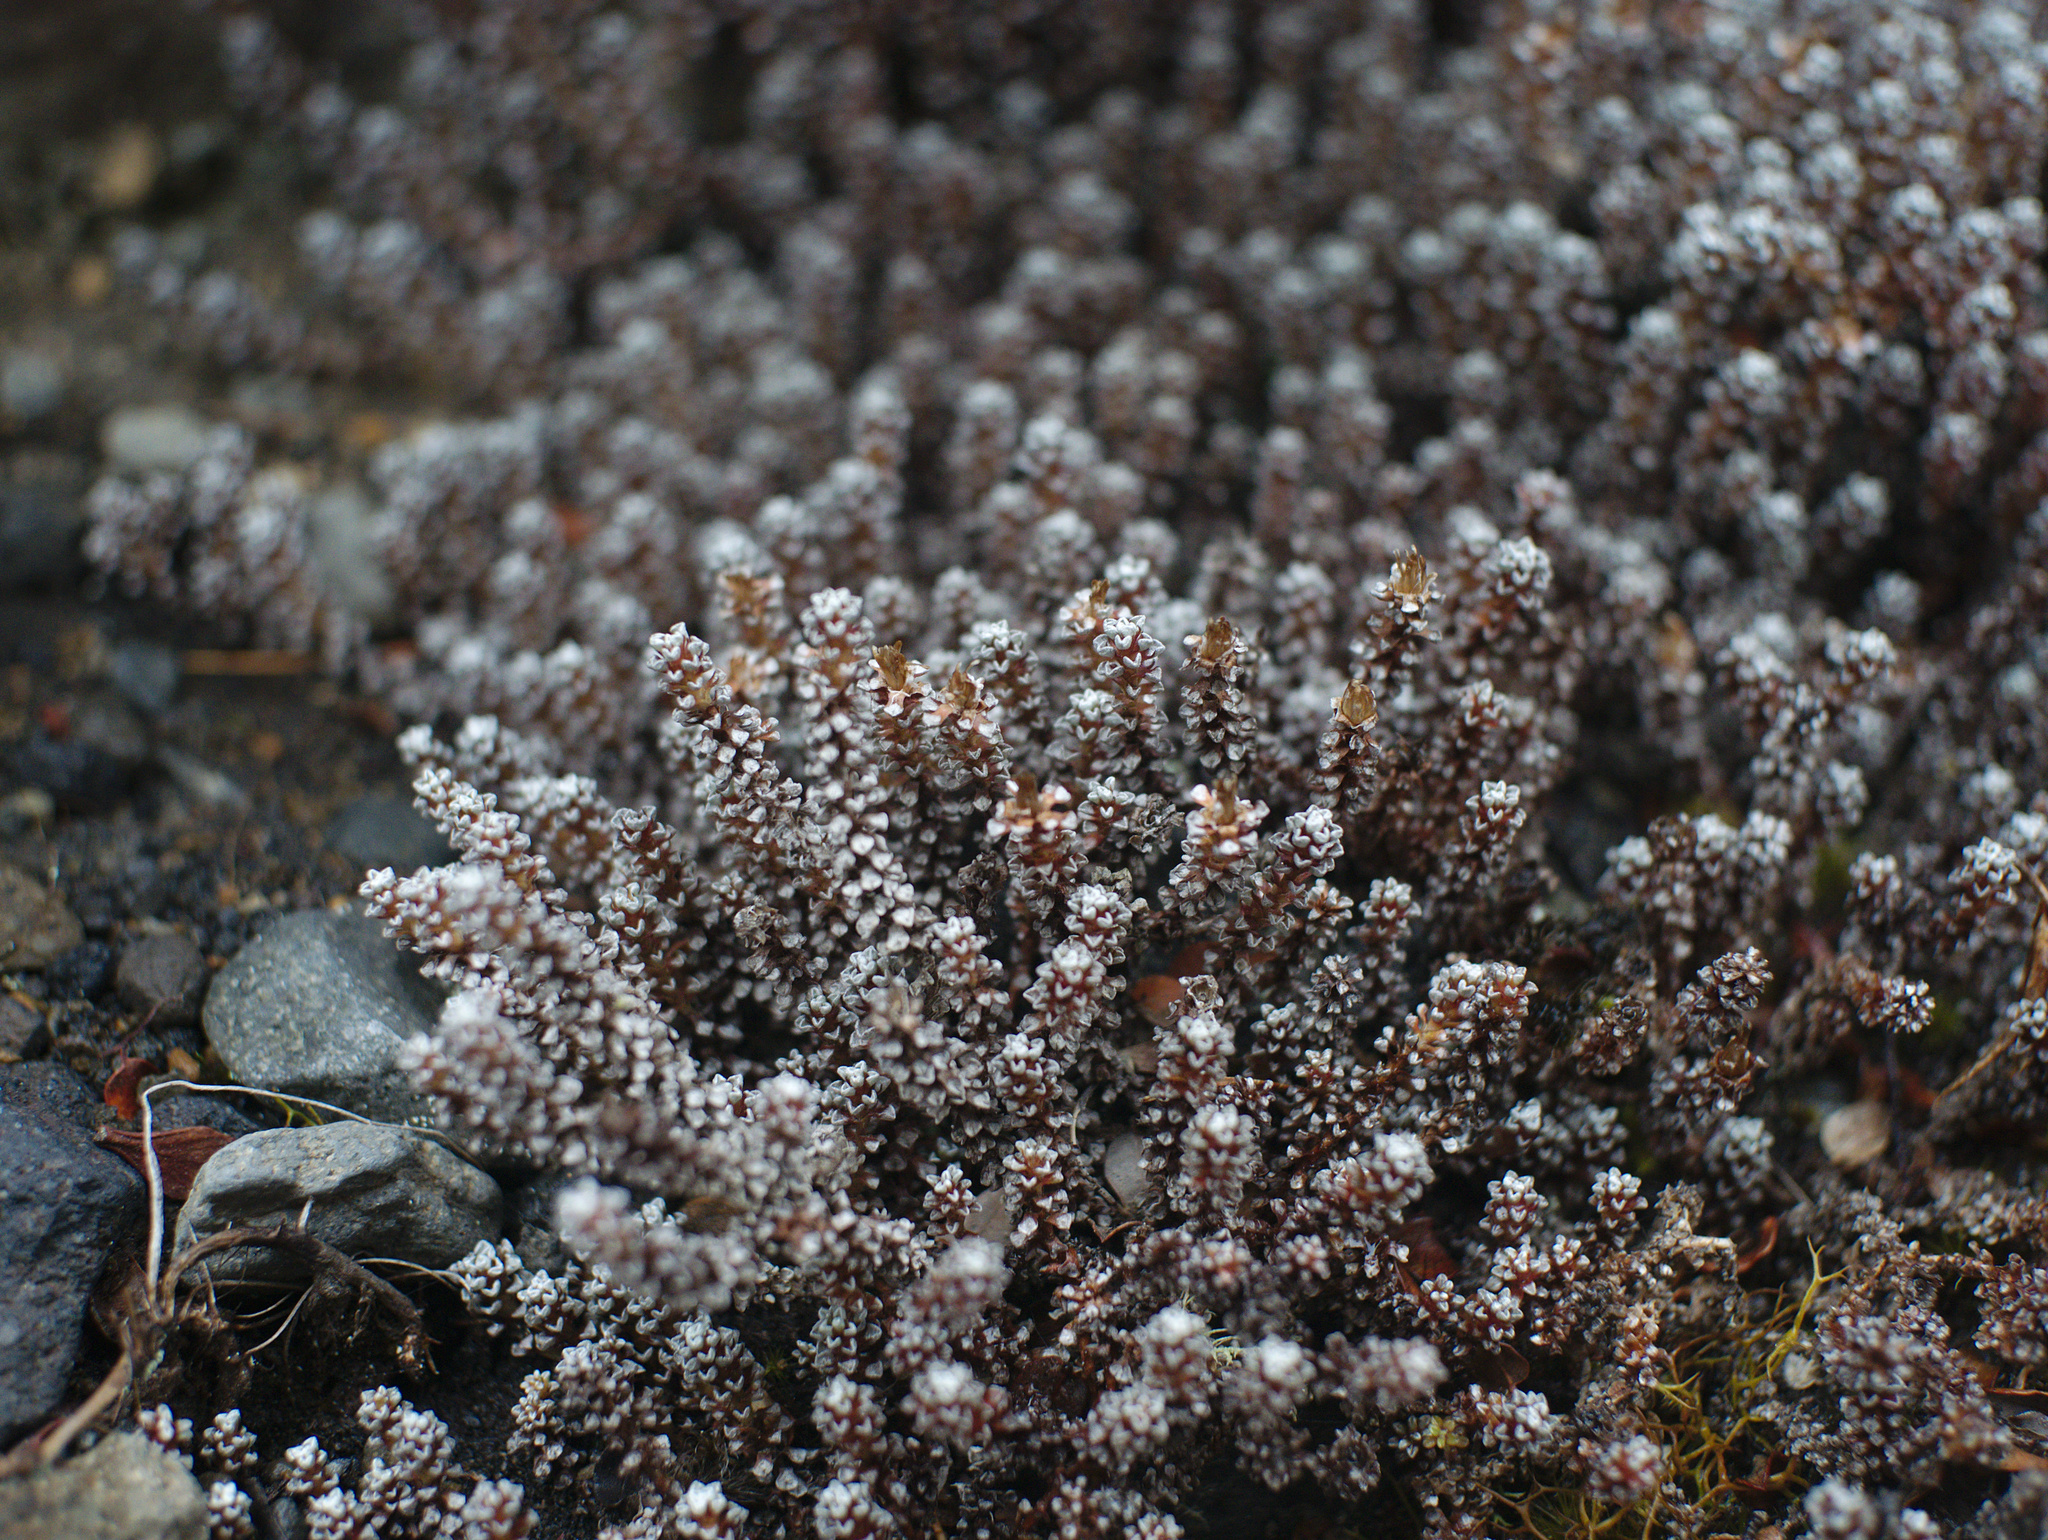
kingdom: Plantae
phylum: Tracheophyta
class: Magnoliopsida
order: Asterales
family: Asteraceae
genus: Raoulia
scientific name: Raoulia albosericea
